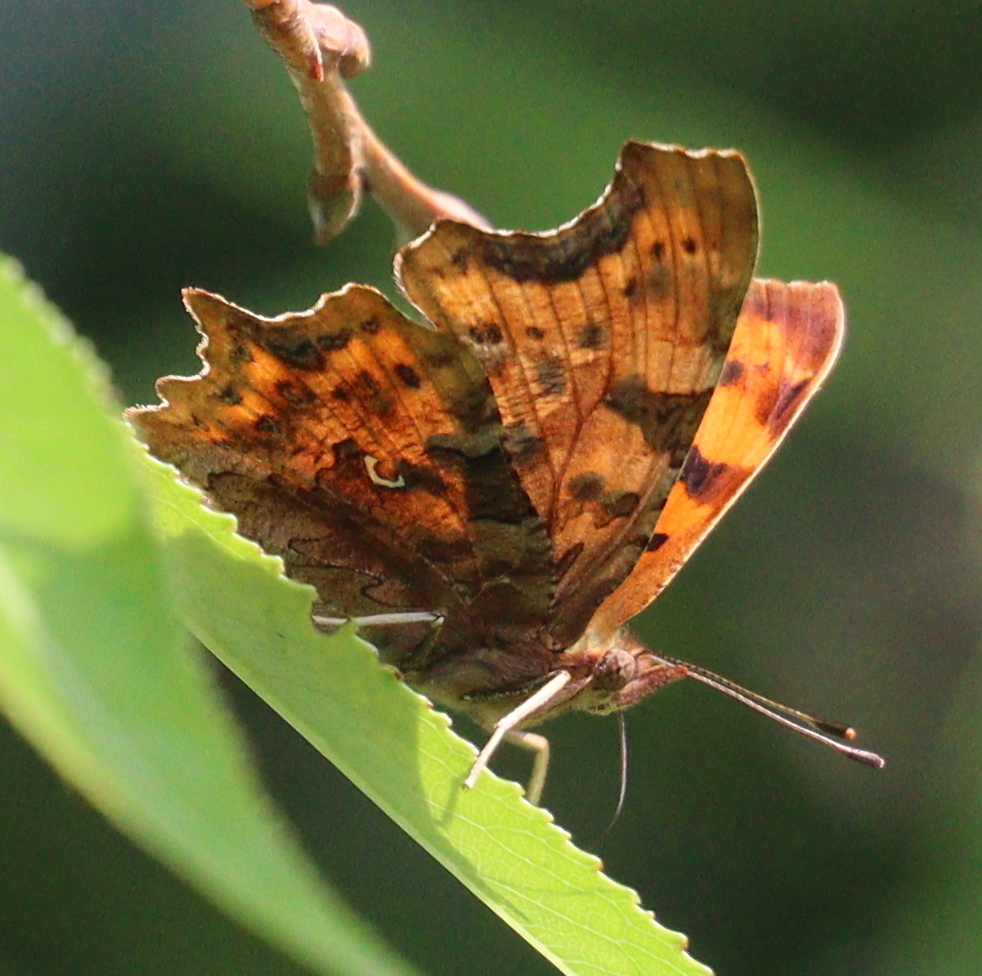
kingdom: Animalia
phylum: Arthropoda
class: Insecta
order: Lepidoptera
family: Nymphalidae
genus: Polygonia
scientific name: Polygonia c-album
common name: Comma
